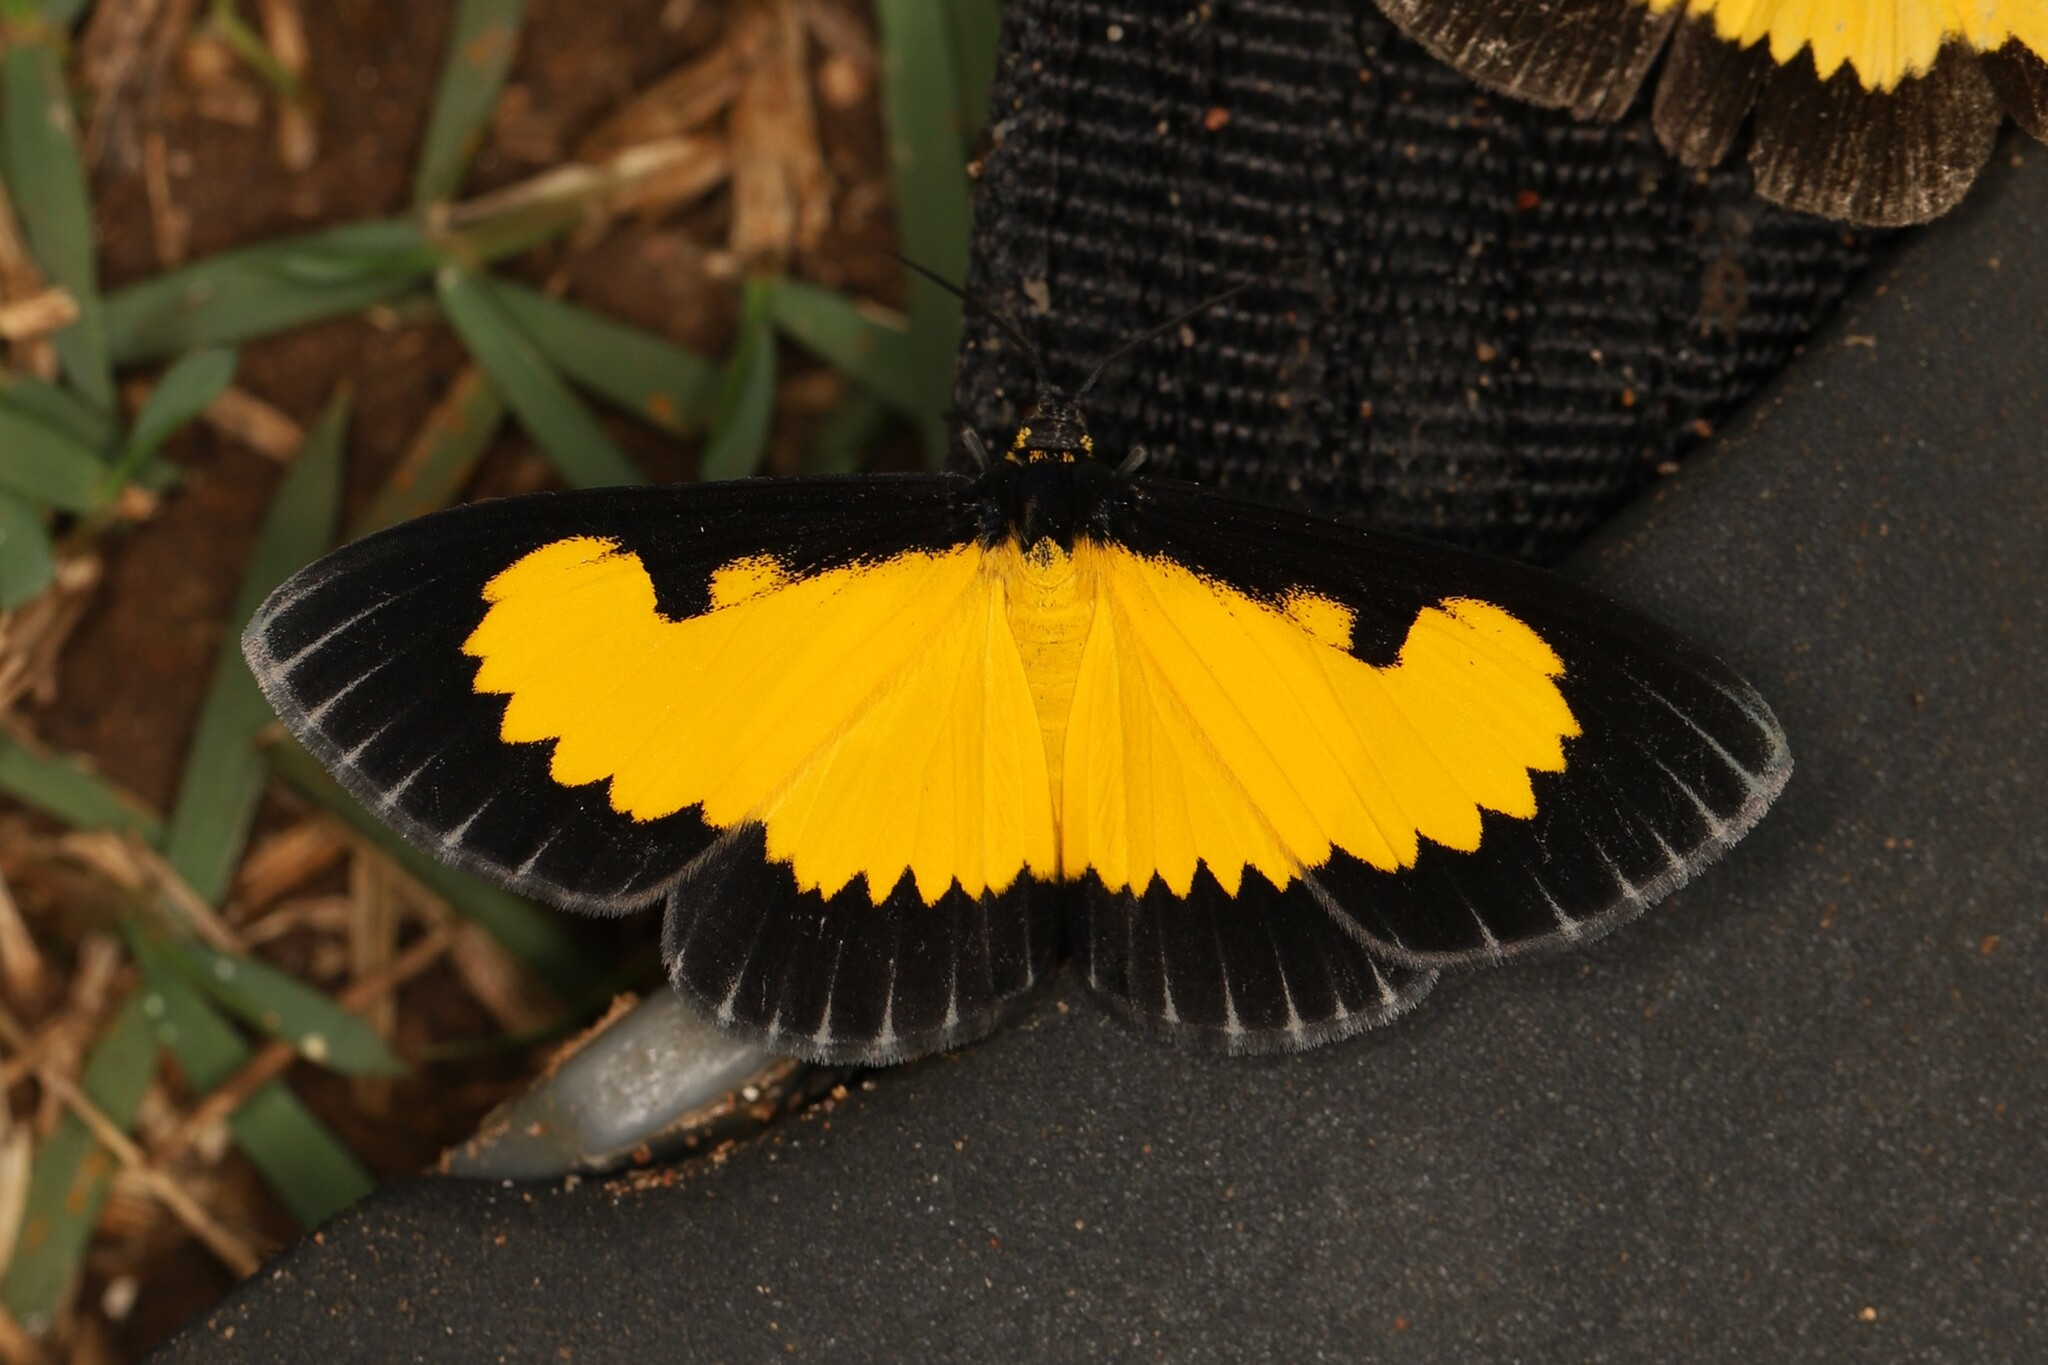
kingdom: Animalia
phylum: Arthropoda
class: Insecta
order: Lepidoptera
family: Geometridae
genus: Xanthyris
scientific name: Xanthyris flaveolata
